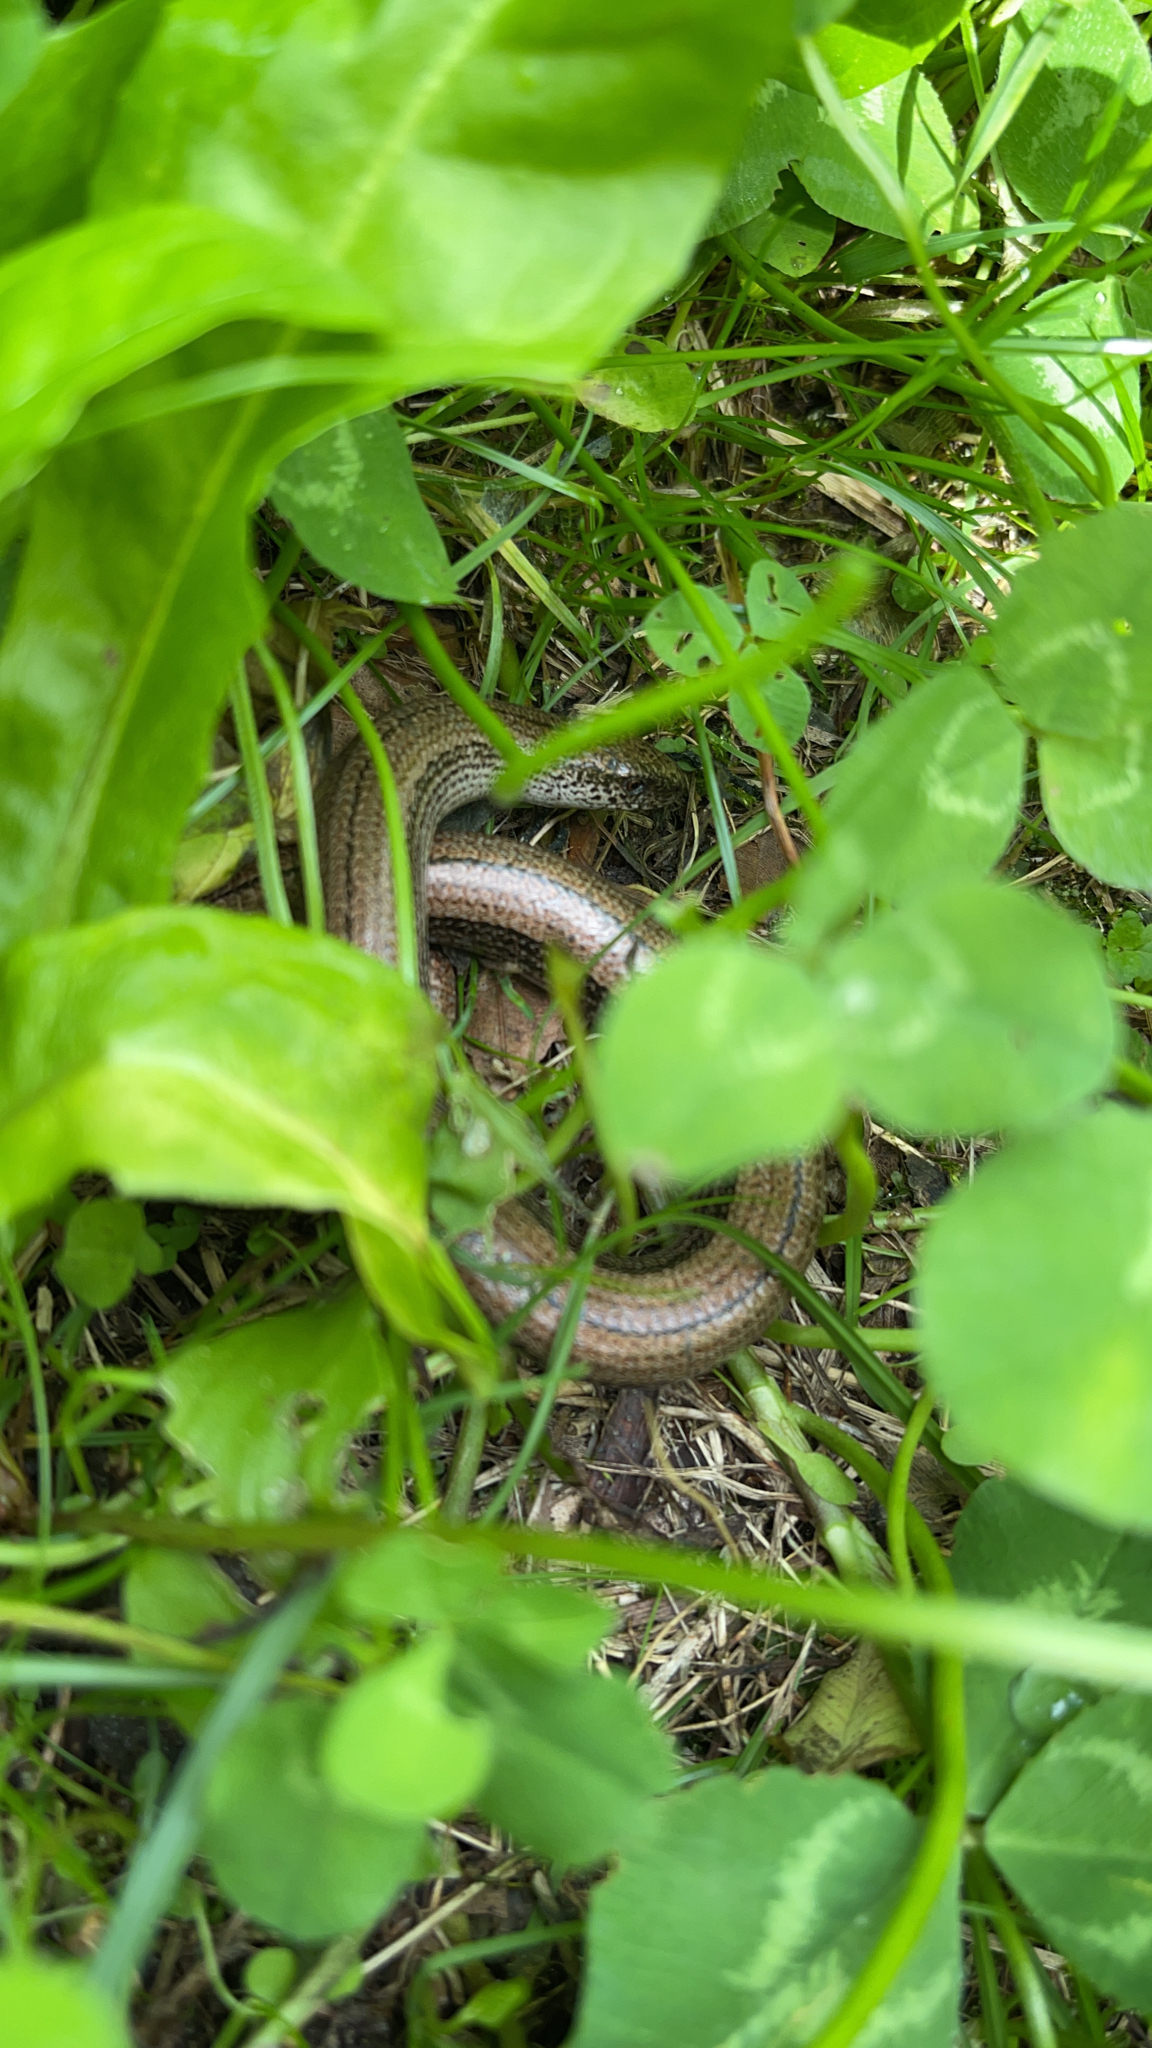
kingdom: Animalia
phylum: Chordata
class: Squamata
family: Anguidae
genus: Anguis
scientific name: Anguis veronensis
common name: Italian slow worm
